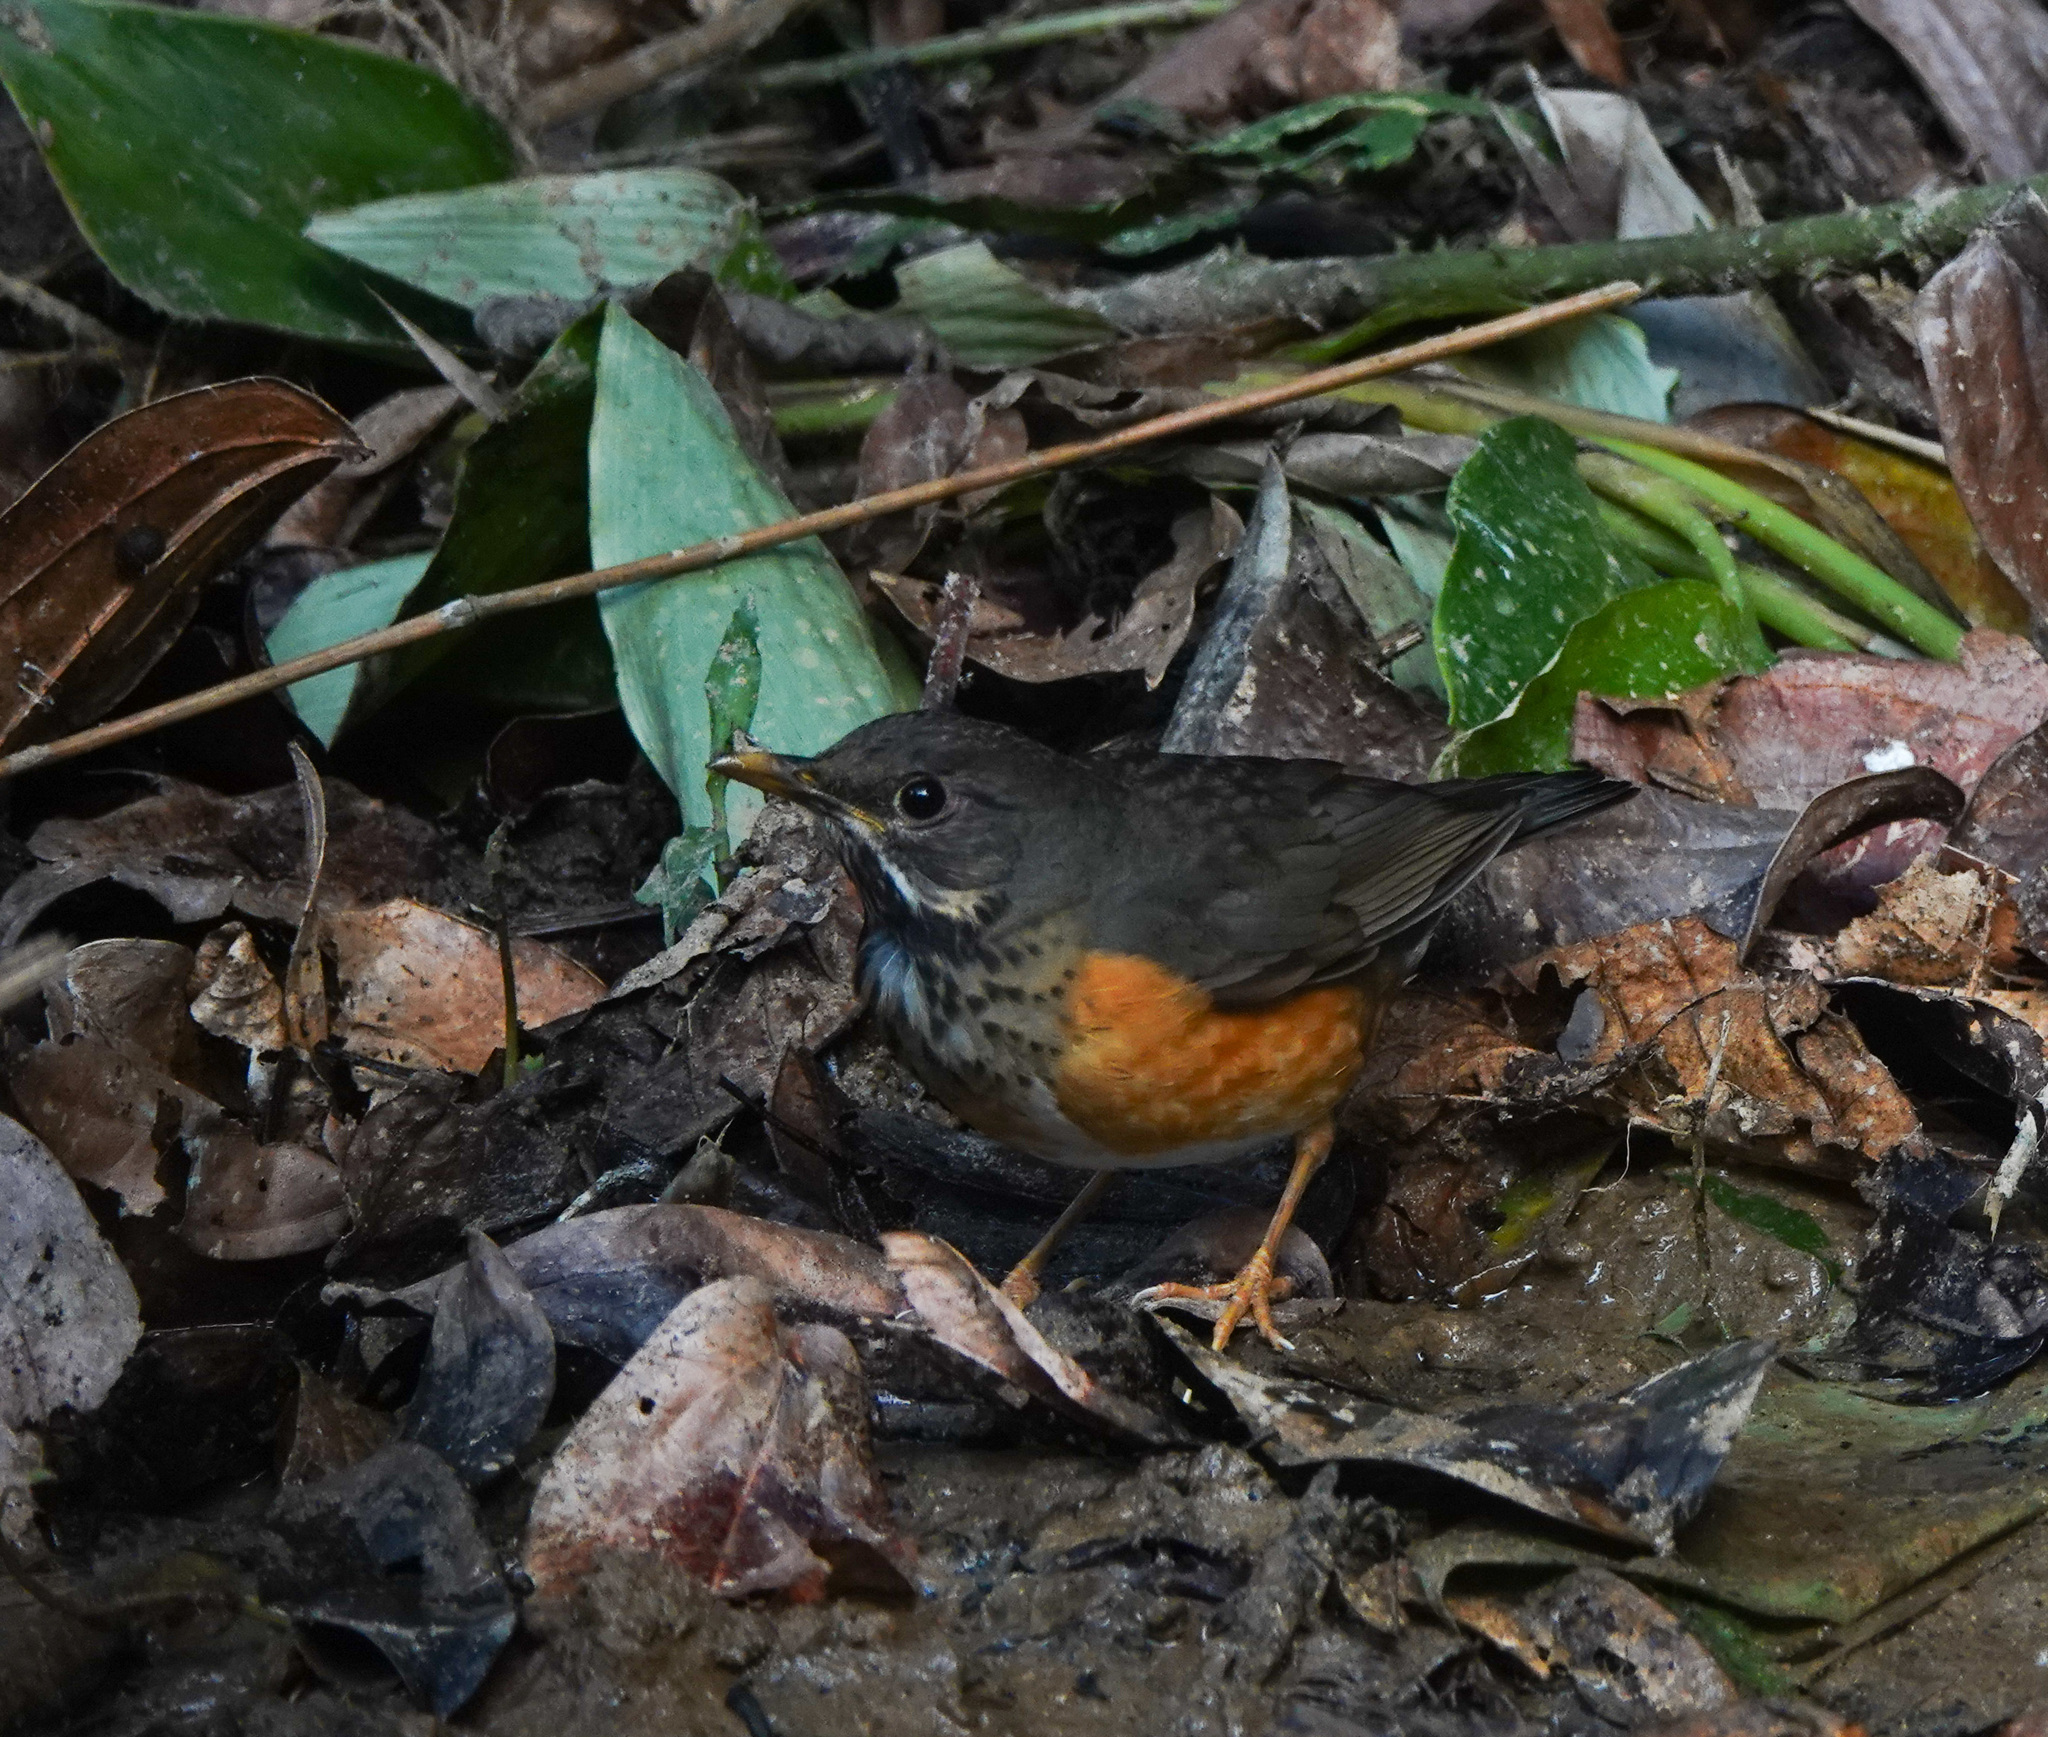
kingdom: Animalia
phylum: Chordata
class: Aves
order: Passeriformes
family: Turdidae
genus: Turdus
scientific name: Turdus dissimilis
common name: Black-breasted thrush
